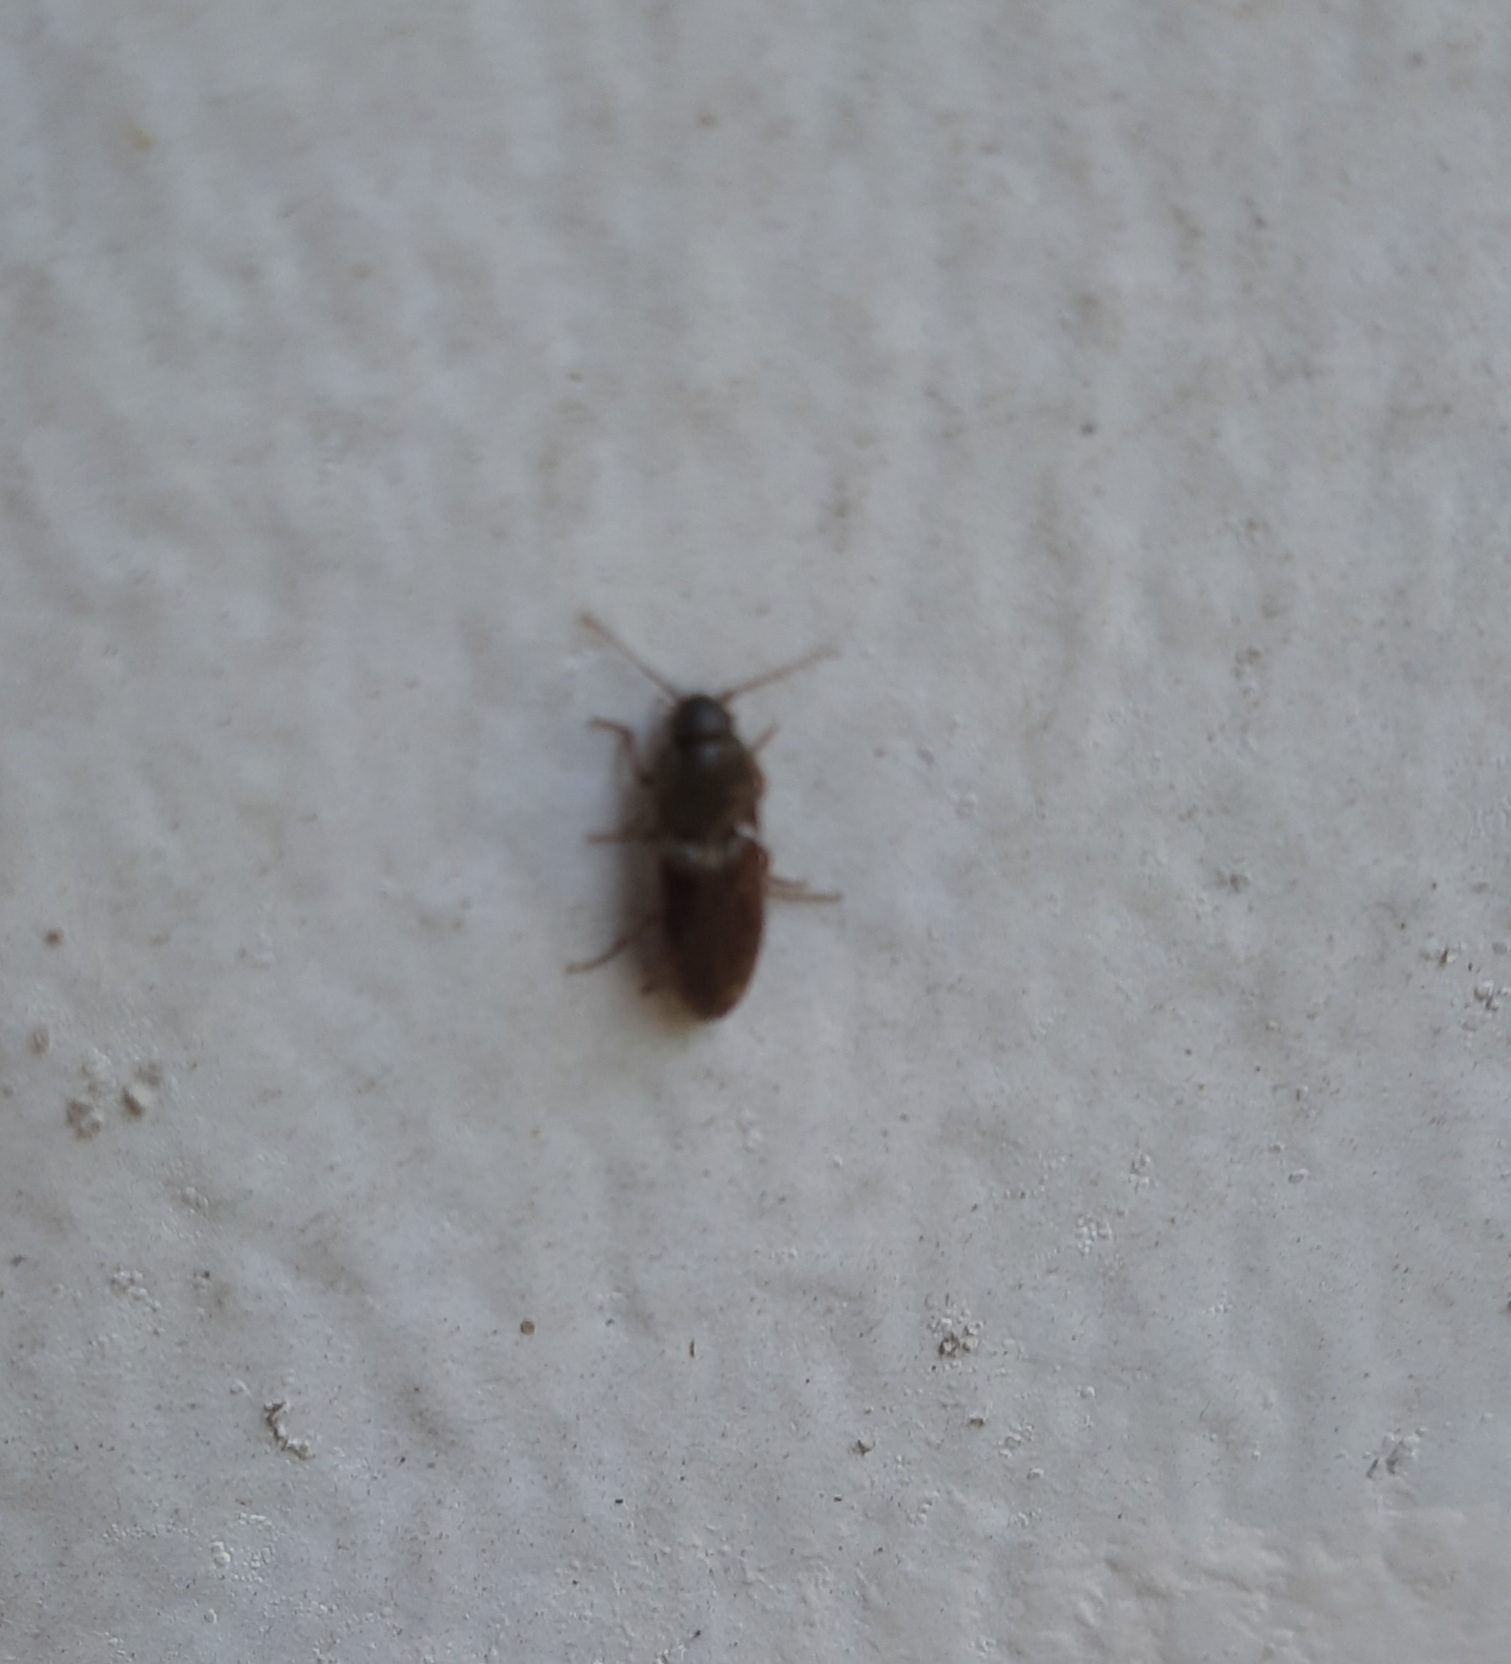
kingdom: Animalia
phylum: Arthropoda
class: Insecta
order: Coleoptera
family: Elateridae
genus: Agriotes
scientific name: Agriotes
